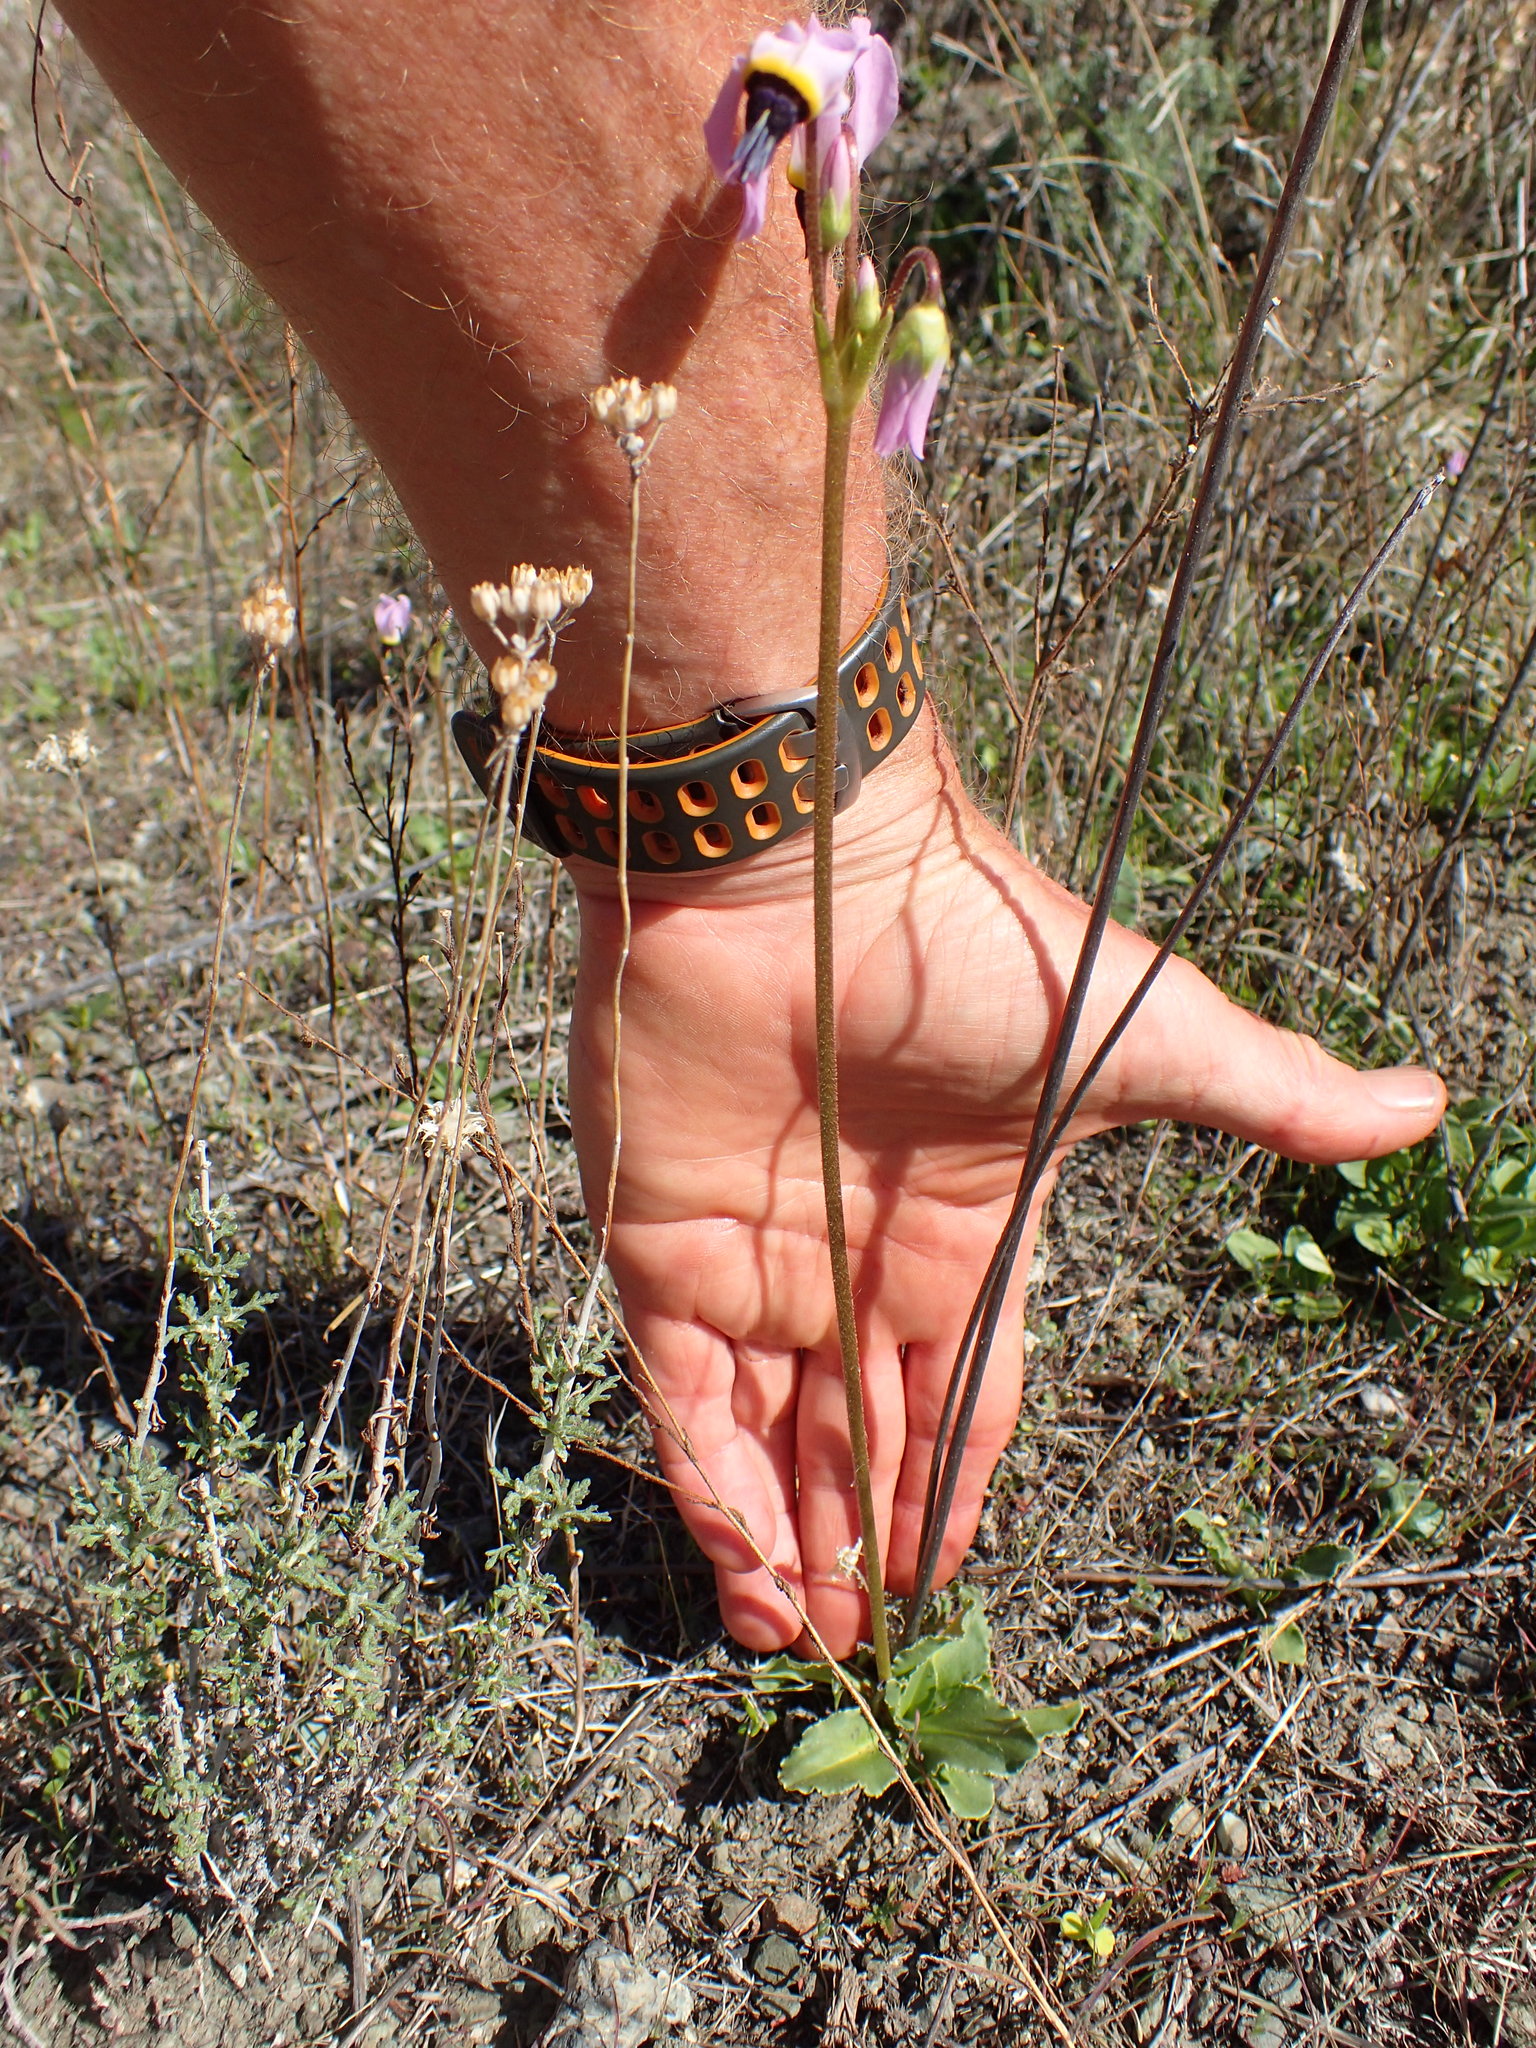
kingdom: Plantae
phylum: Tracheophyta
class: Magnoliopsida
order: Ericales
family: Primulaceae
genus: Dodecatheon
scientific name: Dodecatheon clevelandii
